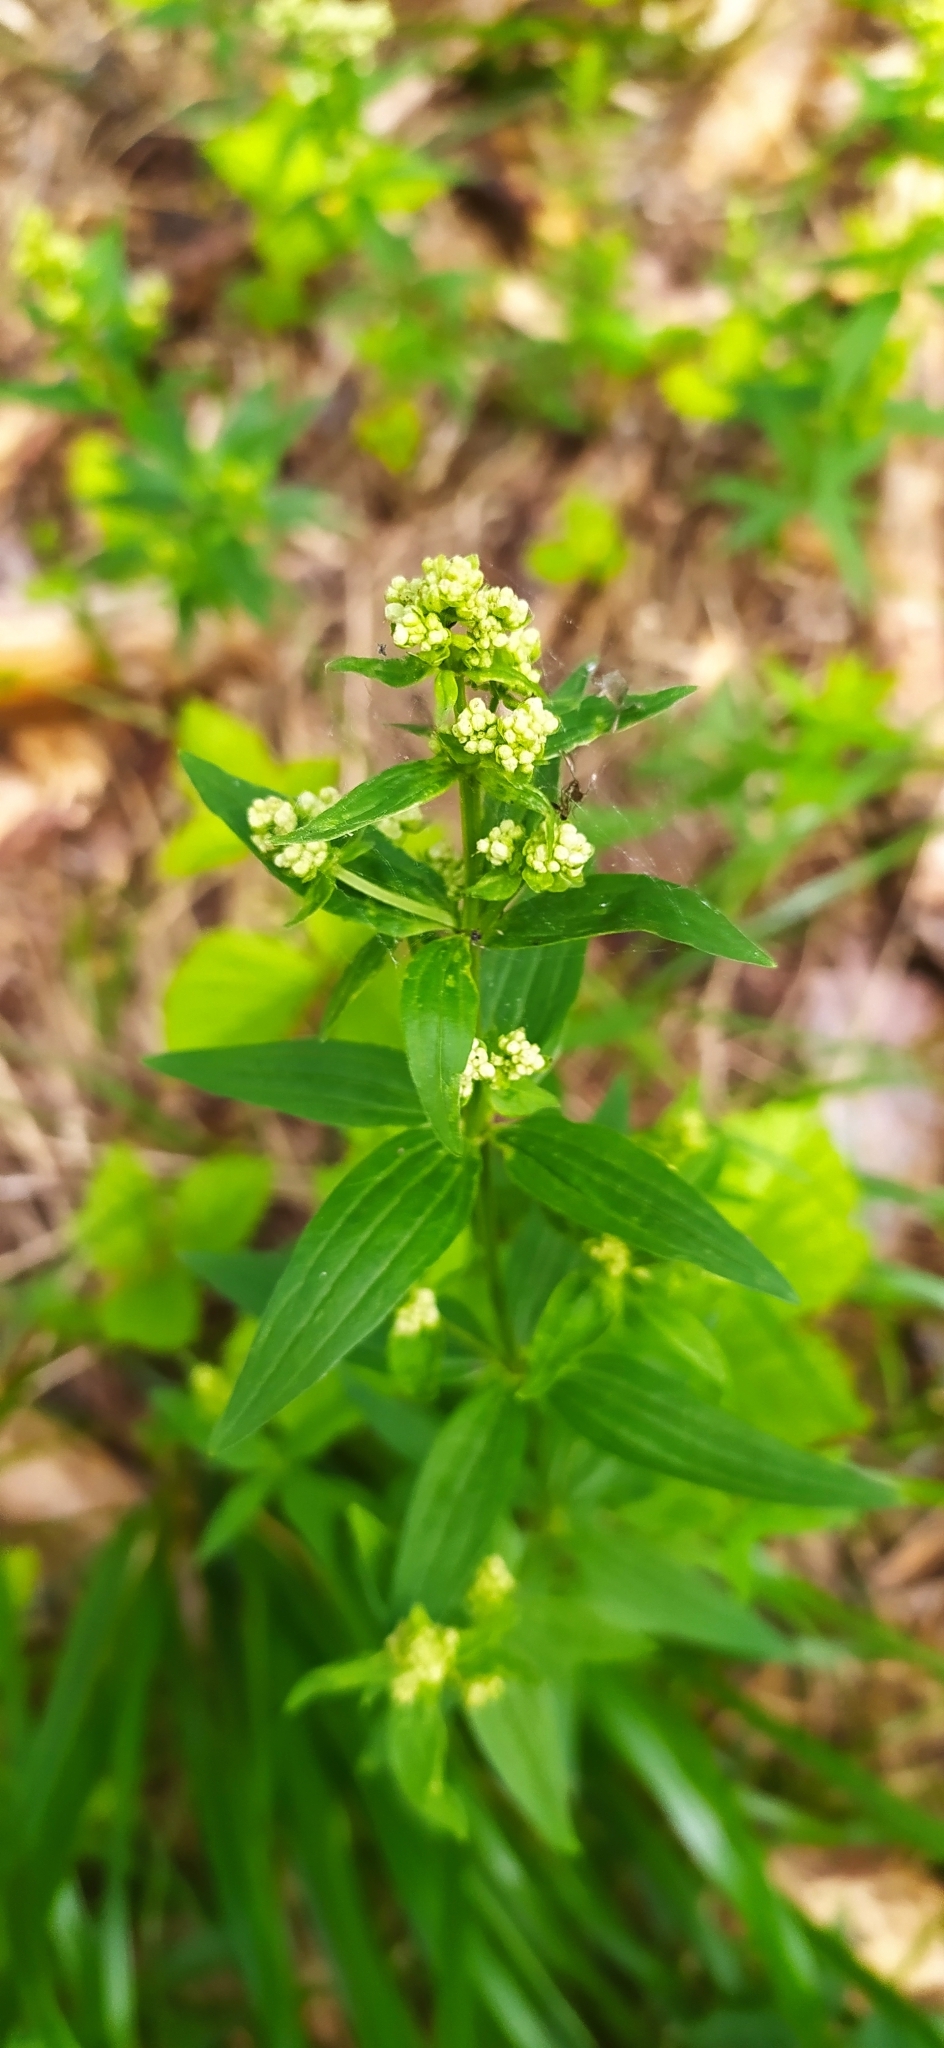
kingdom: Plantae
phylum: Tracheophyta
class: Magnoliopsida
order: Gentianales
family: Rubiaceae
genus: Galium
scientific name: Galium boreale
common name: Northern bedstraw
